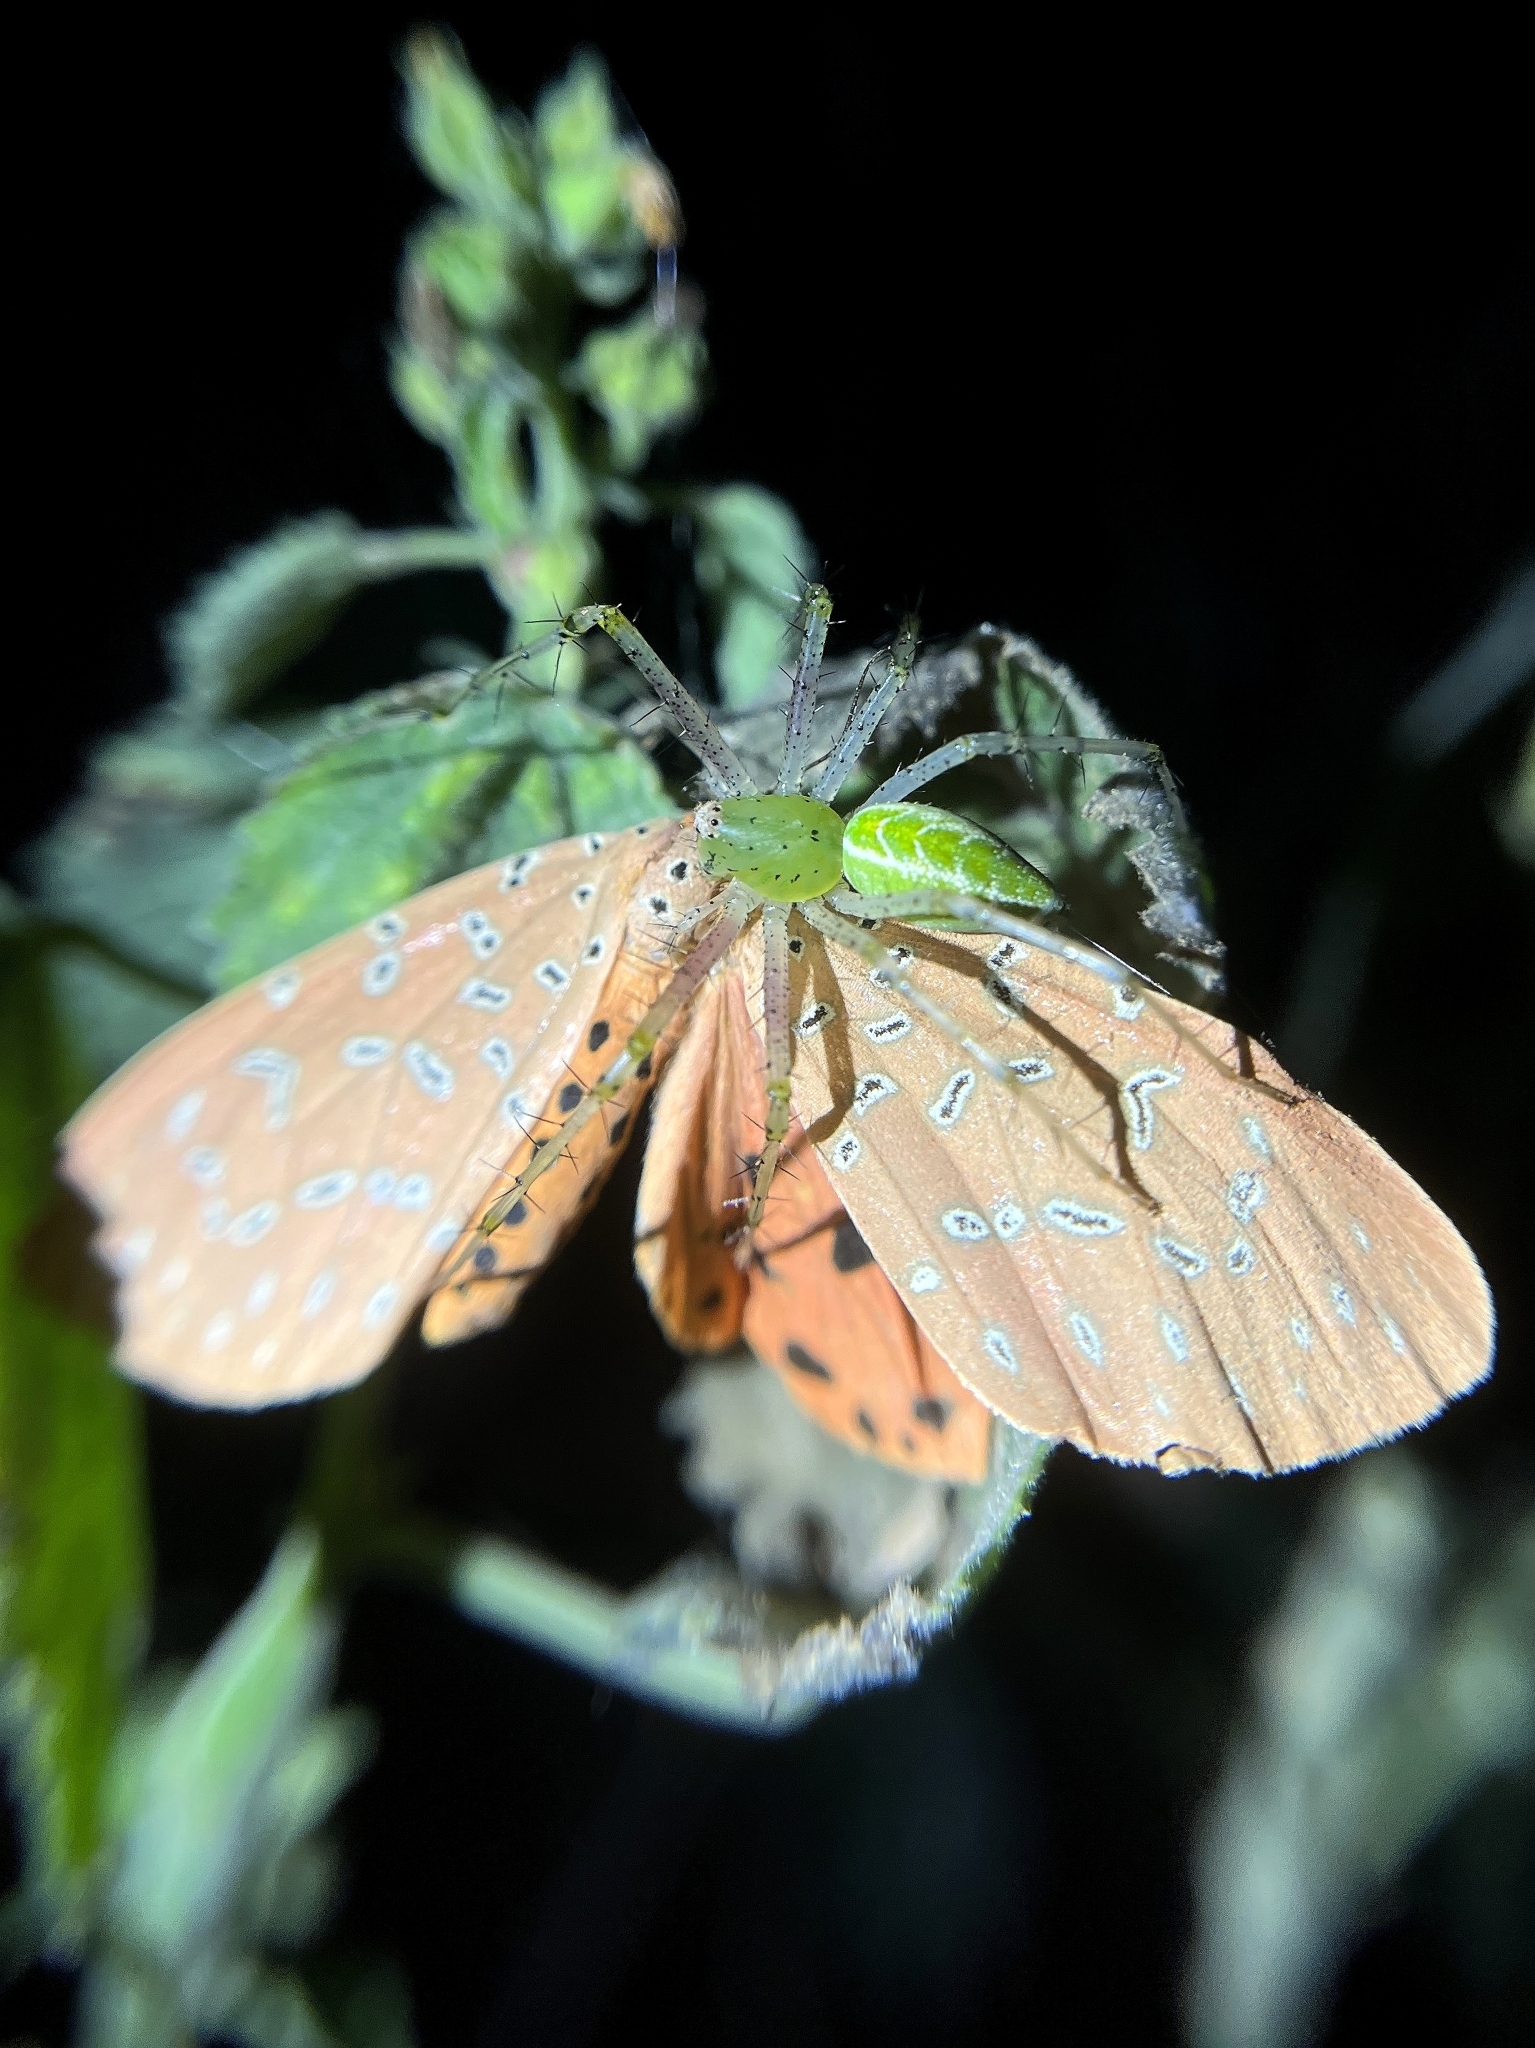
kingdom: Animalia
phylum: Arthropoda
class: Arachnida
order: Araneae
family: Oxyopidae
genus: Peucetia
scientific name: Peucetia viridana
